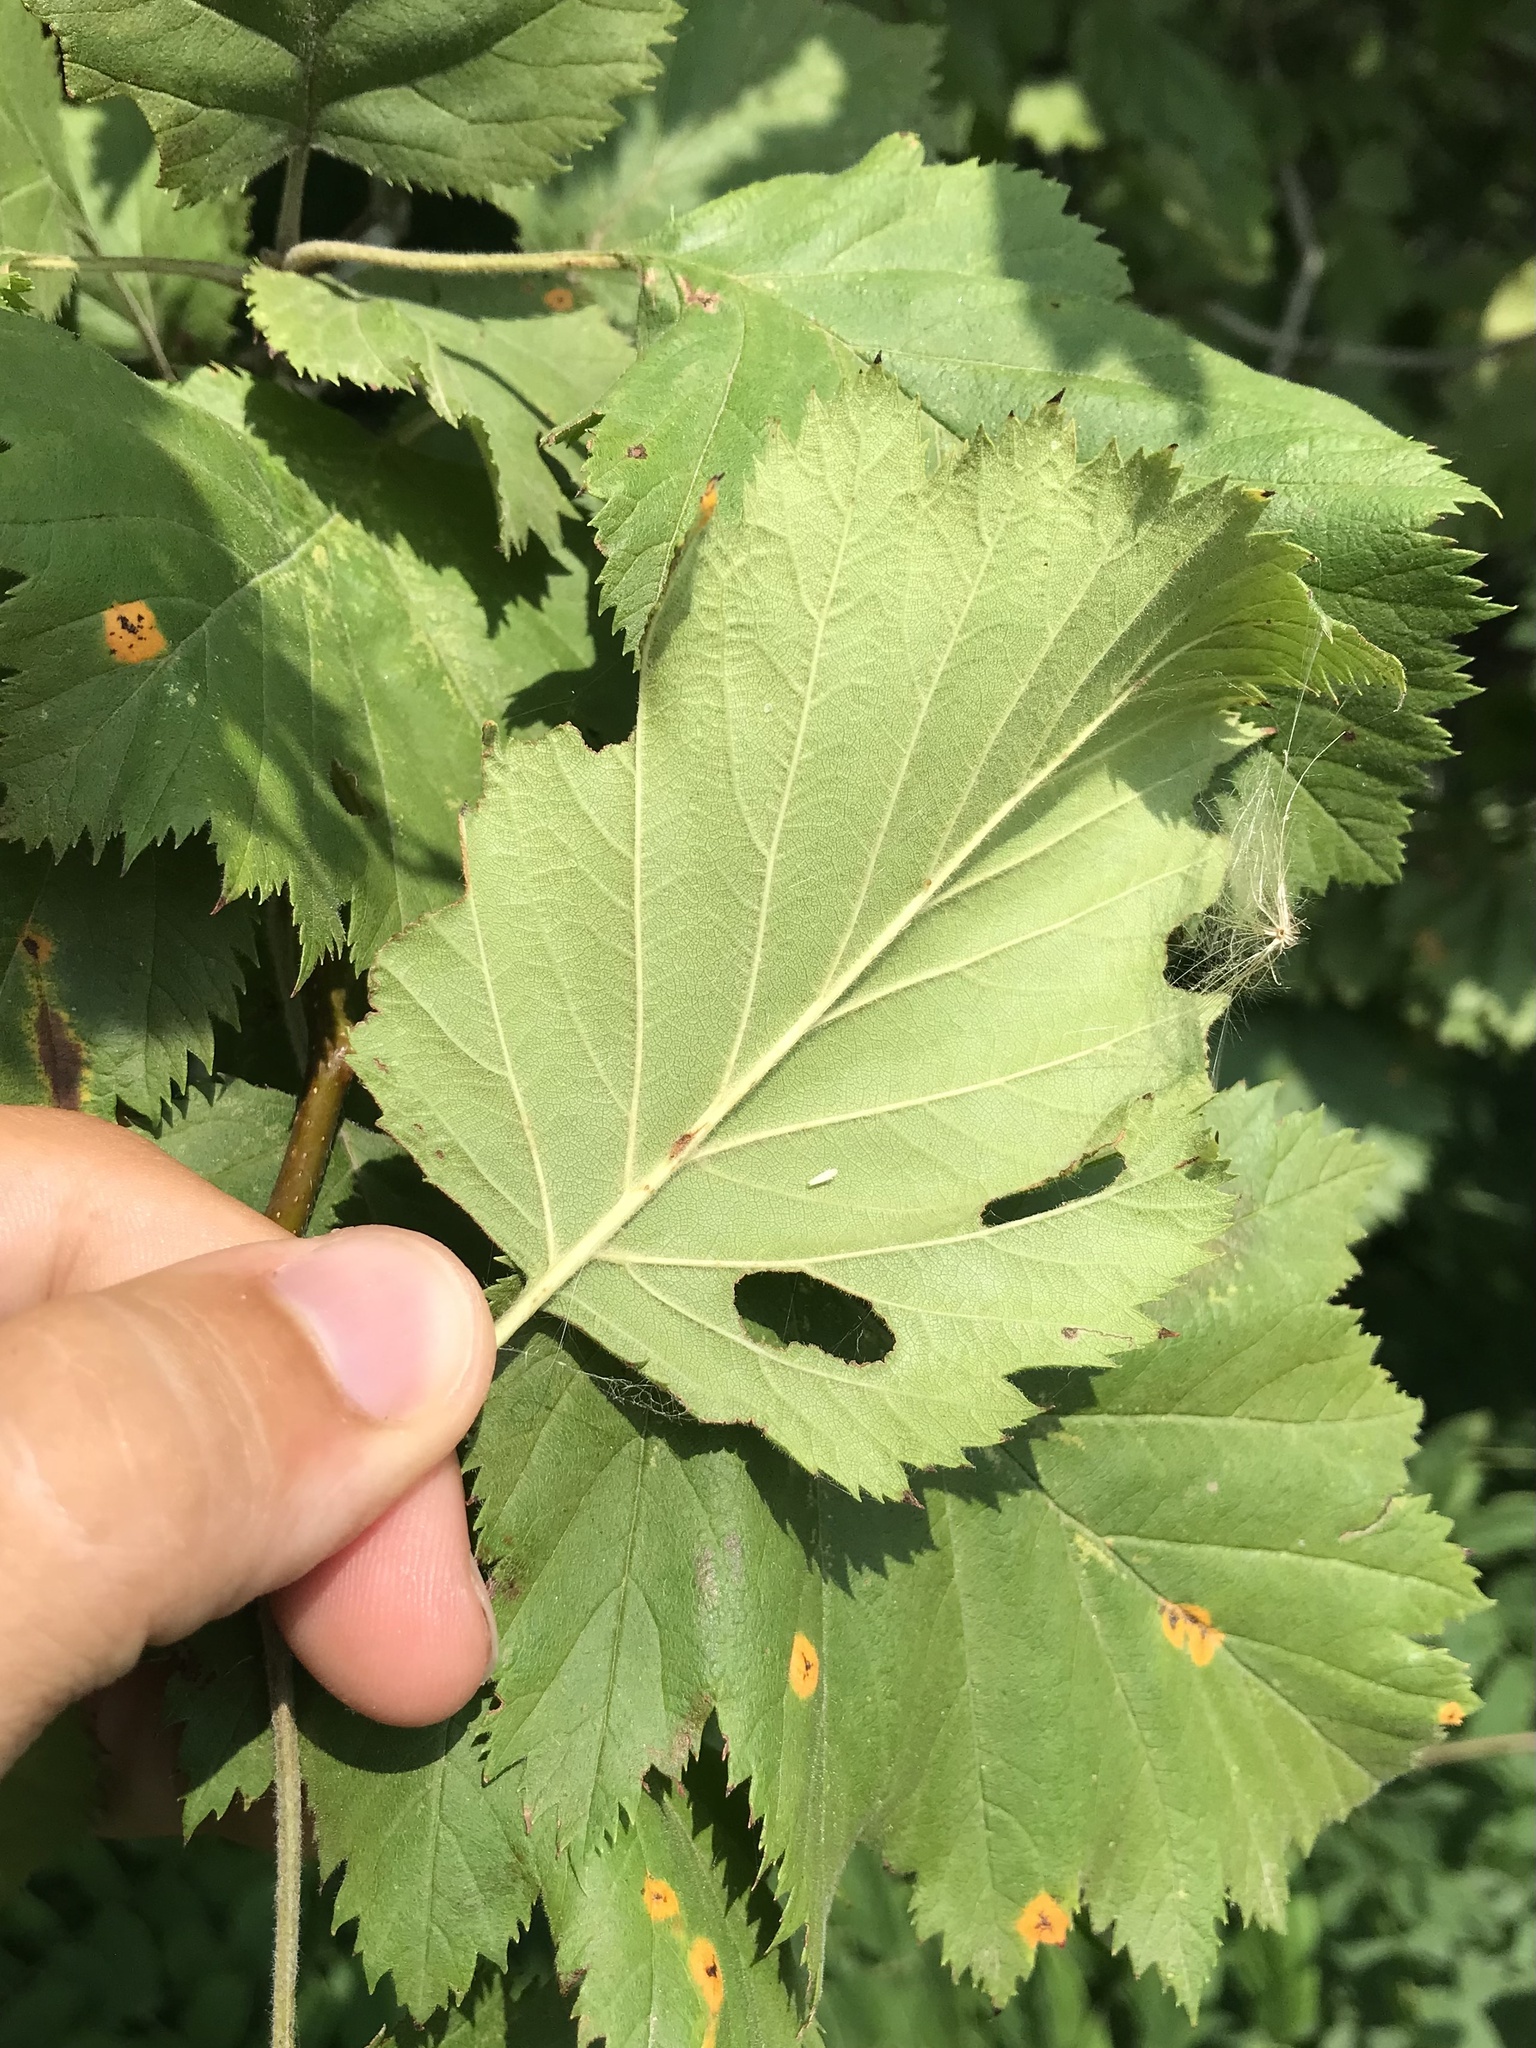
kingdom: Plantae
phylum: Tracheophyta
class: Magnoliopsida
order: Rosales
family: Rosaceae
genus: Crataegus
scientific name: Crataegus mollis
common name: Downy hawthorn
